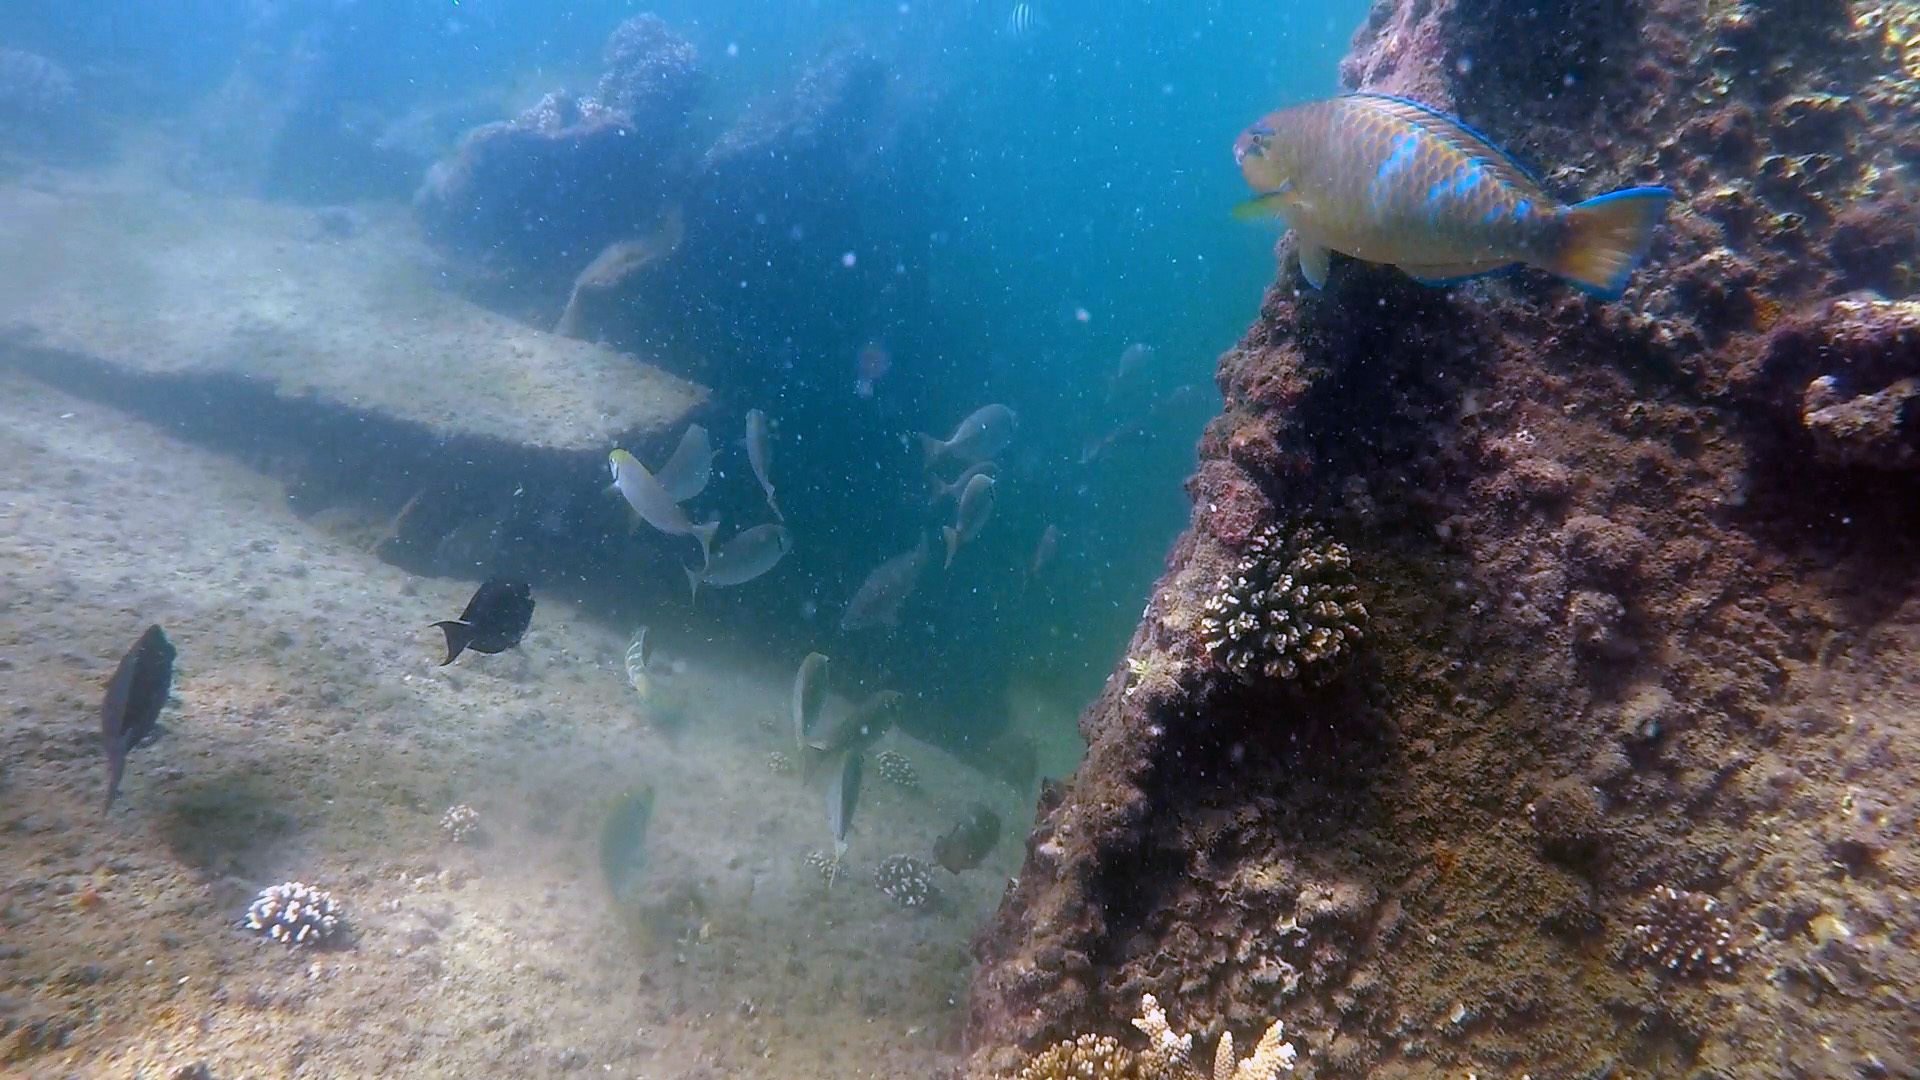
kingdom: Animalia
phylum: Chordata
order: Perciformes
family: Scaridae
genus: Scarus
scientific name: Scarus ghobban
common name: Blue-barred parrotfish
